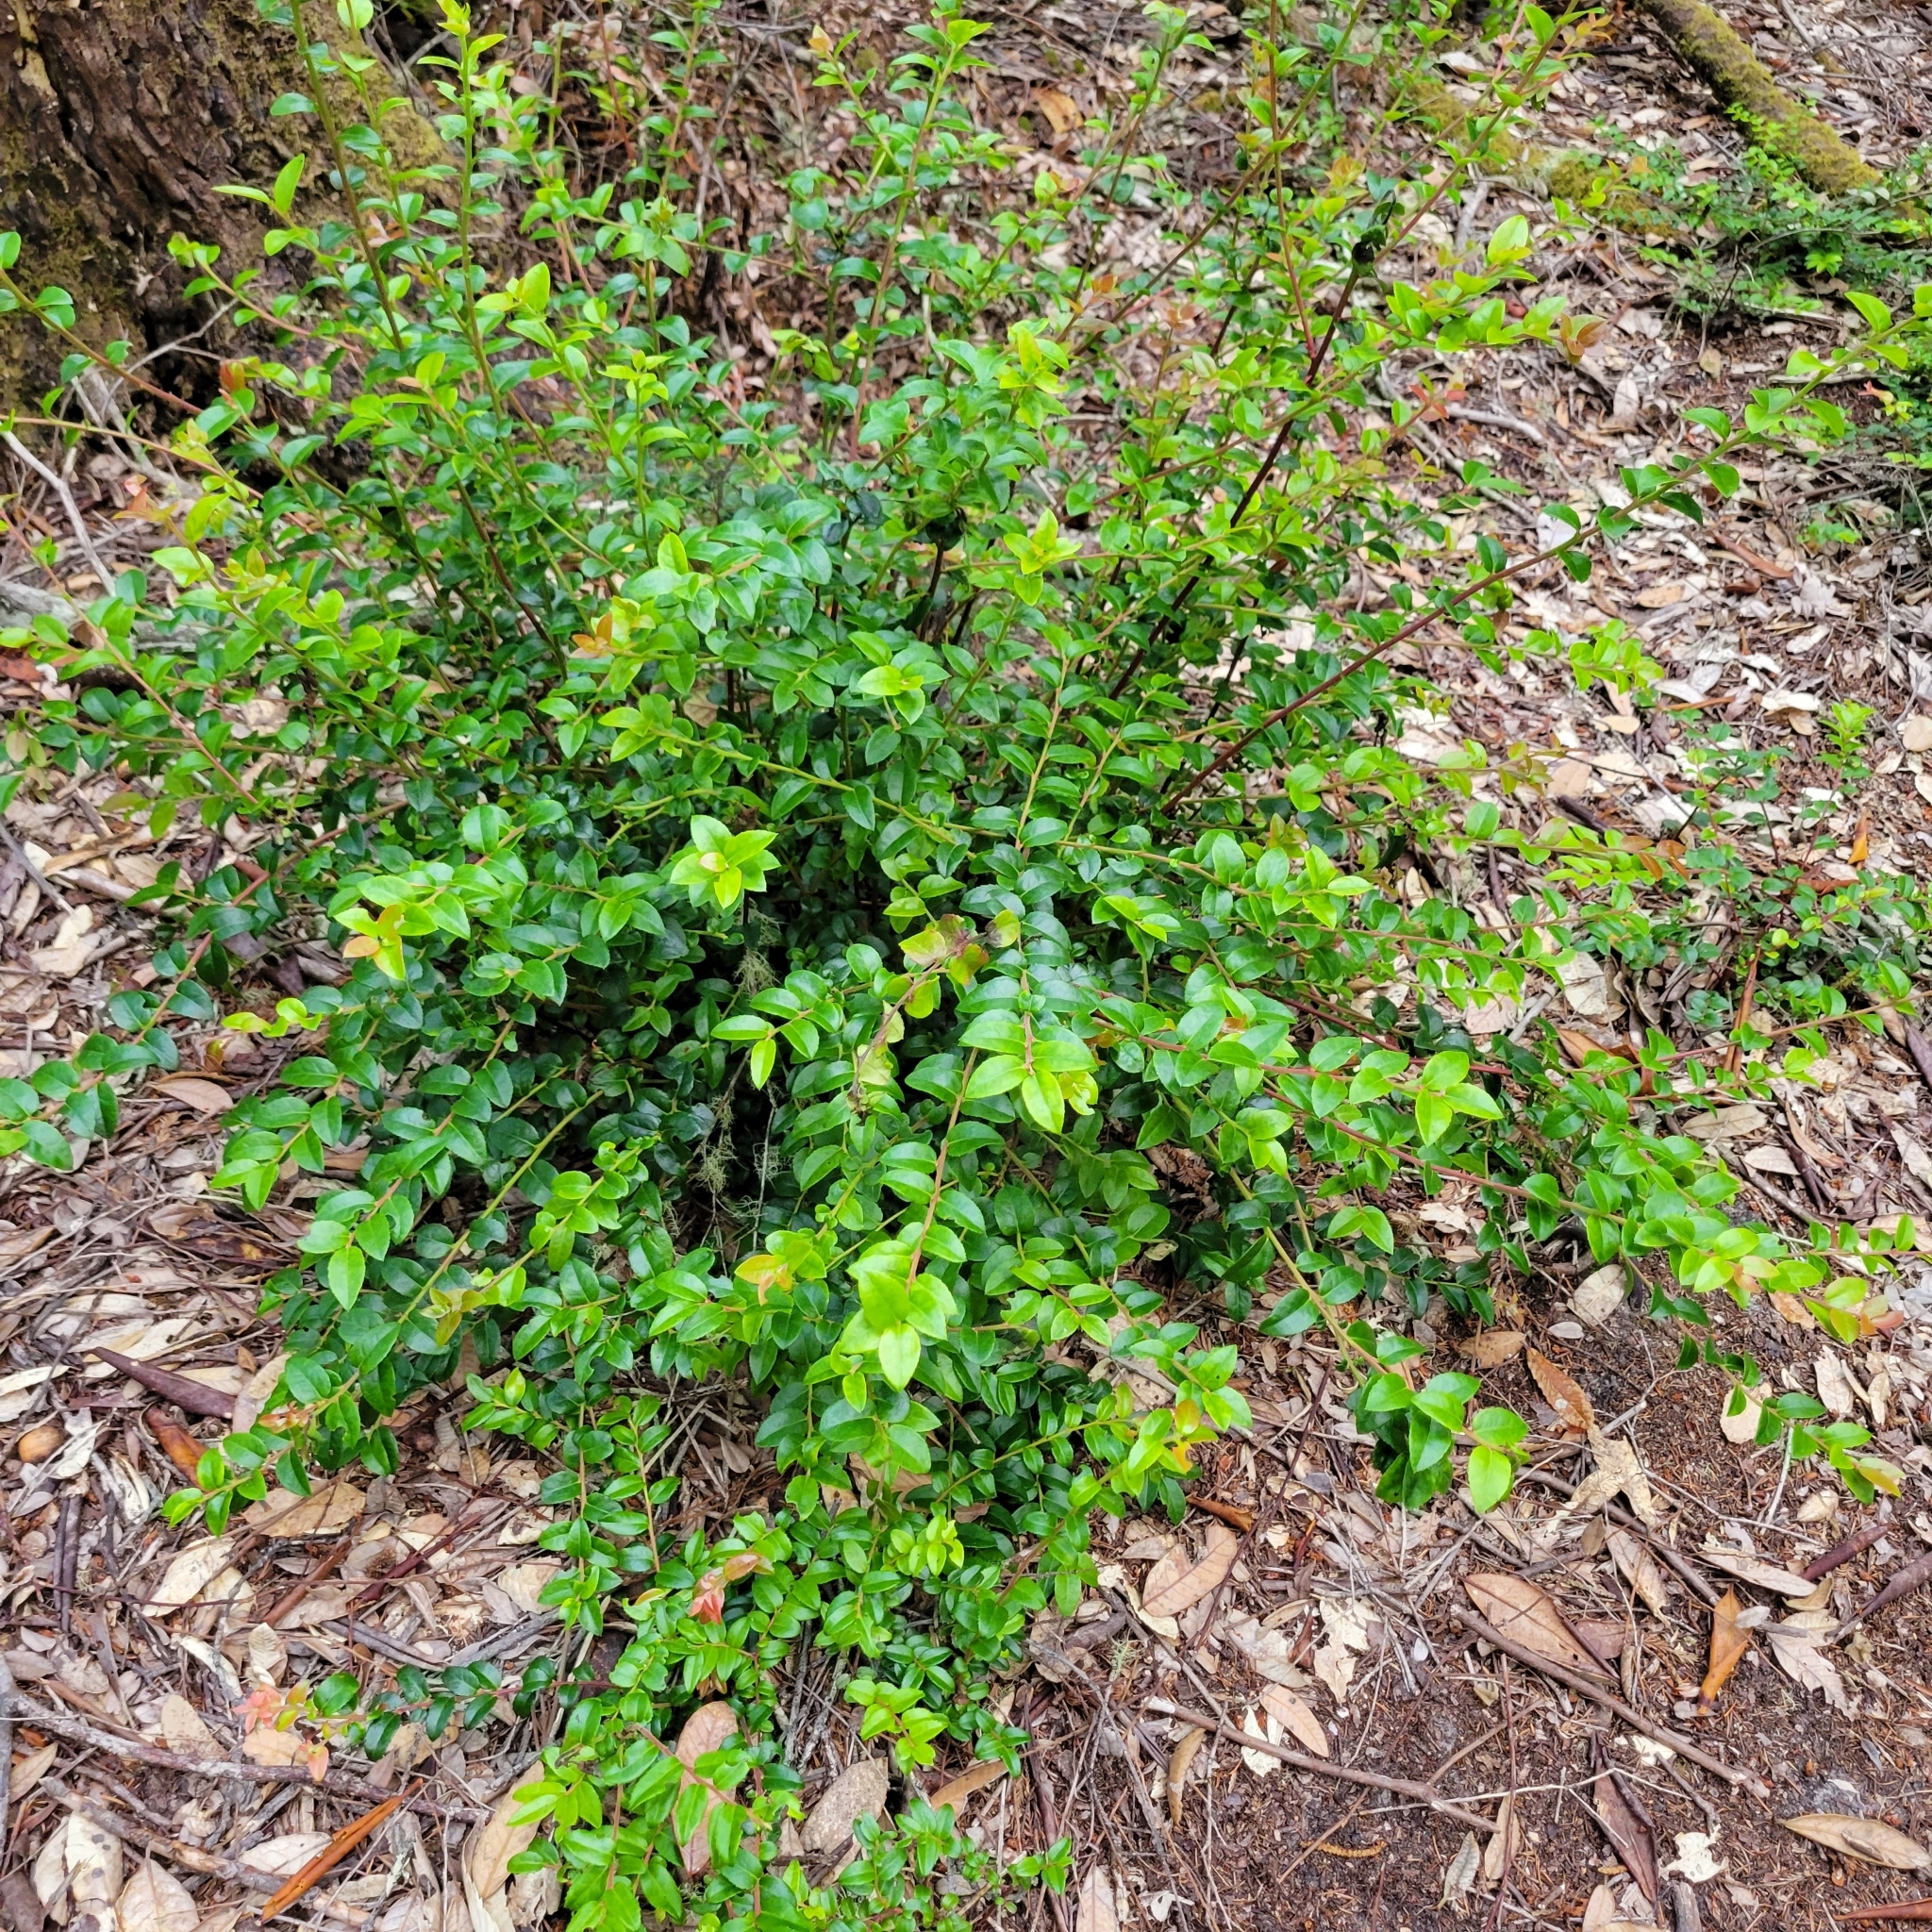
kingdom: Plantae
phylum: Tracheophyta
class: Magnoliopsida
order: Ericales
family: Ericaceae
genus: Vaccinium
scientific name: Vaccinium ovatum
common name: California-huckleberry
